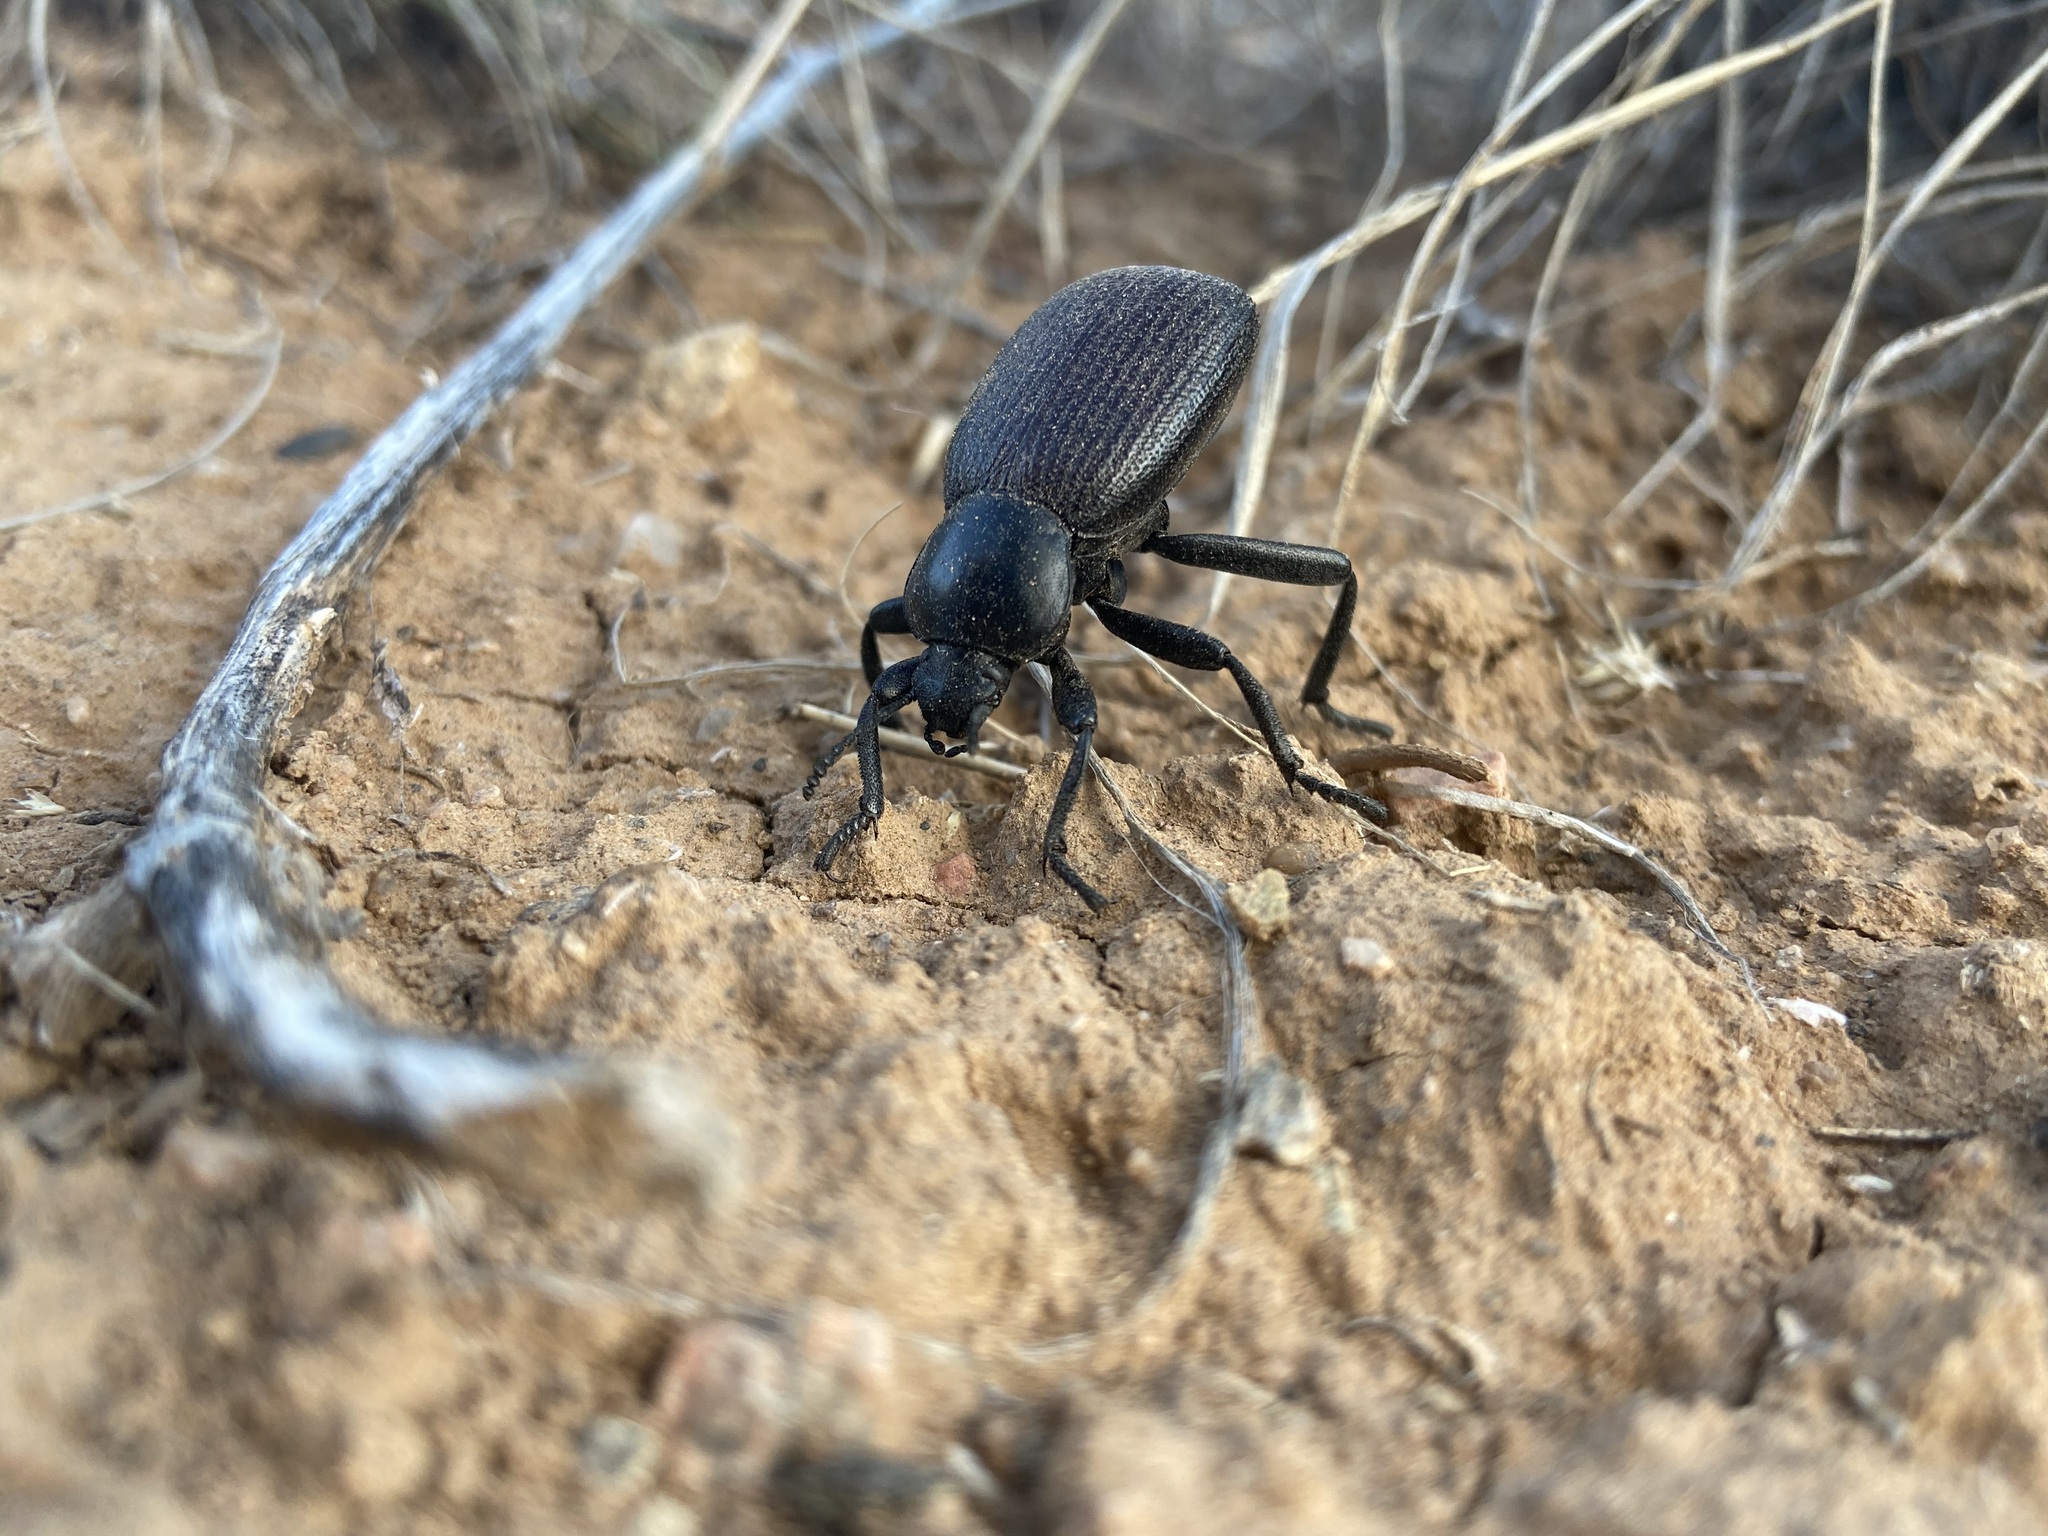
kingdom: Animalia
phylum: Arthropoda
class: Insecta
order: Coleoptera
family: Tenebrionidae
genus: Eleodes
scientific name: Eleodes obscura
